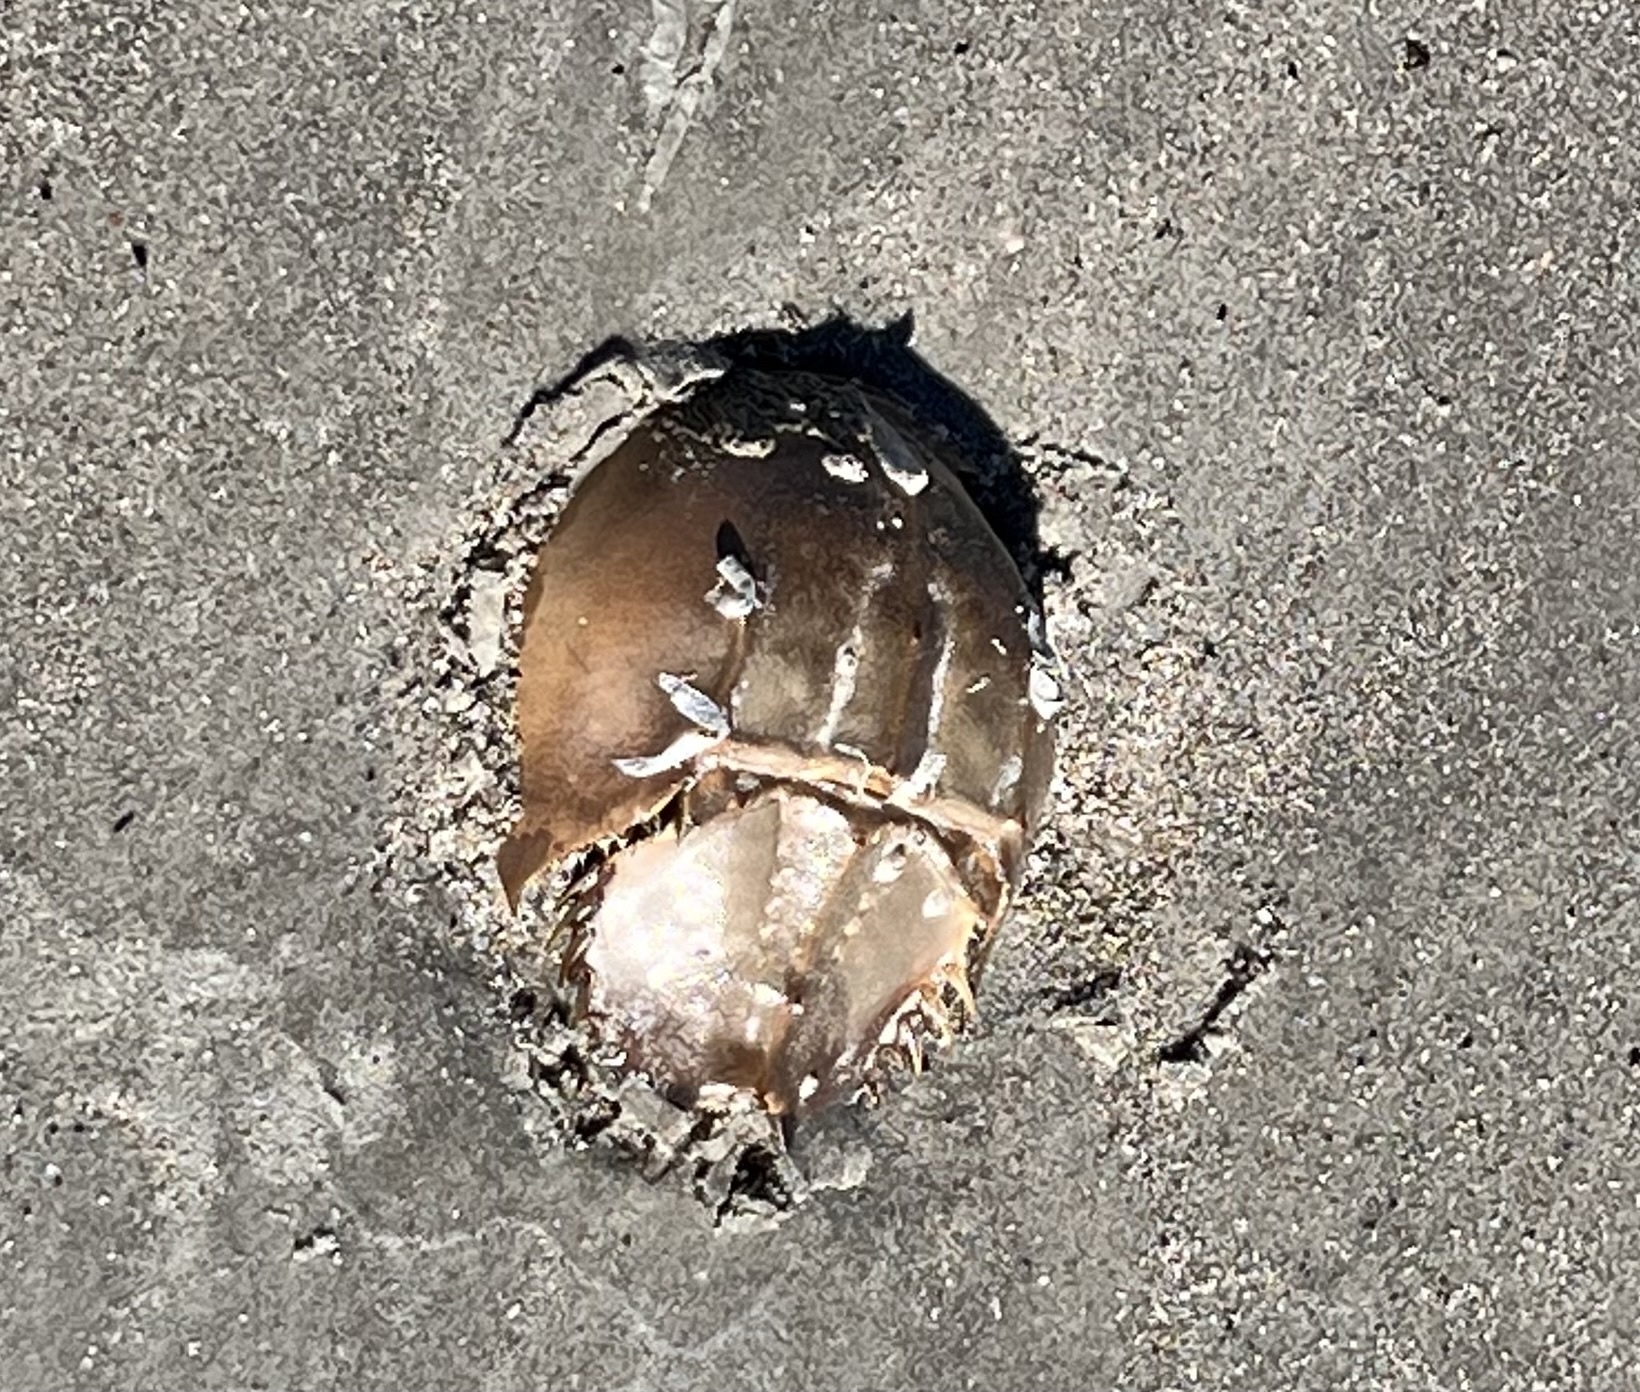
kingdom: Animalia
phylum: Arthropoda
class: Merostomata
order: Xiphosurida
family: Limulidae
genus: Limulus
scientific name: Limulus polyphemus
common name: Horseshoe crab
